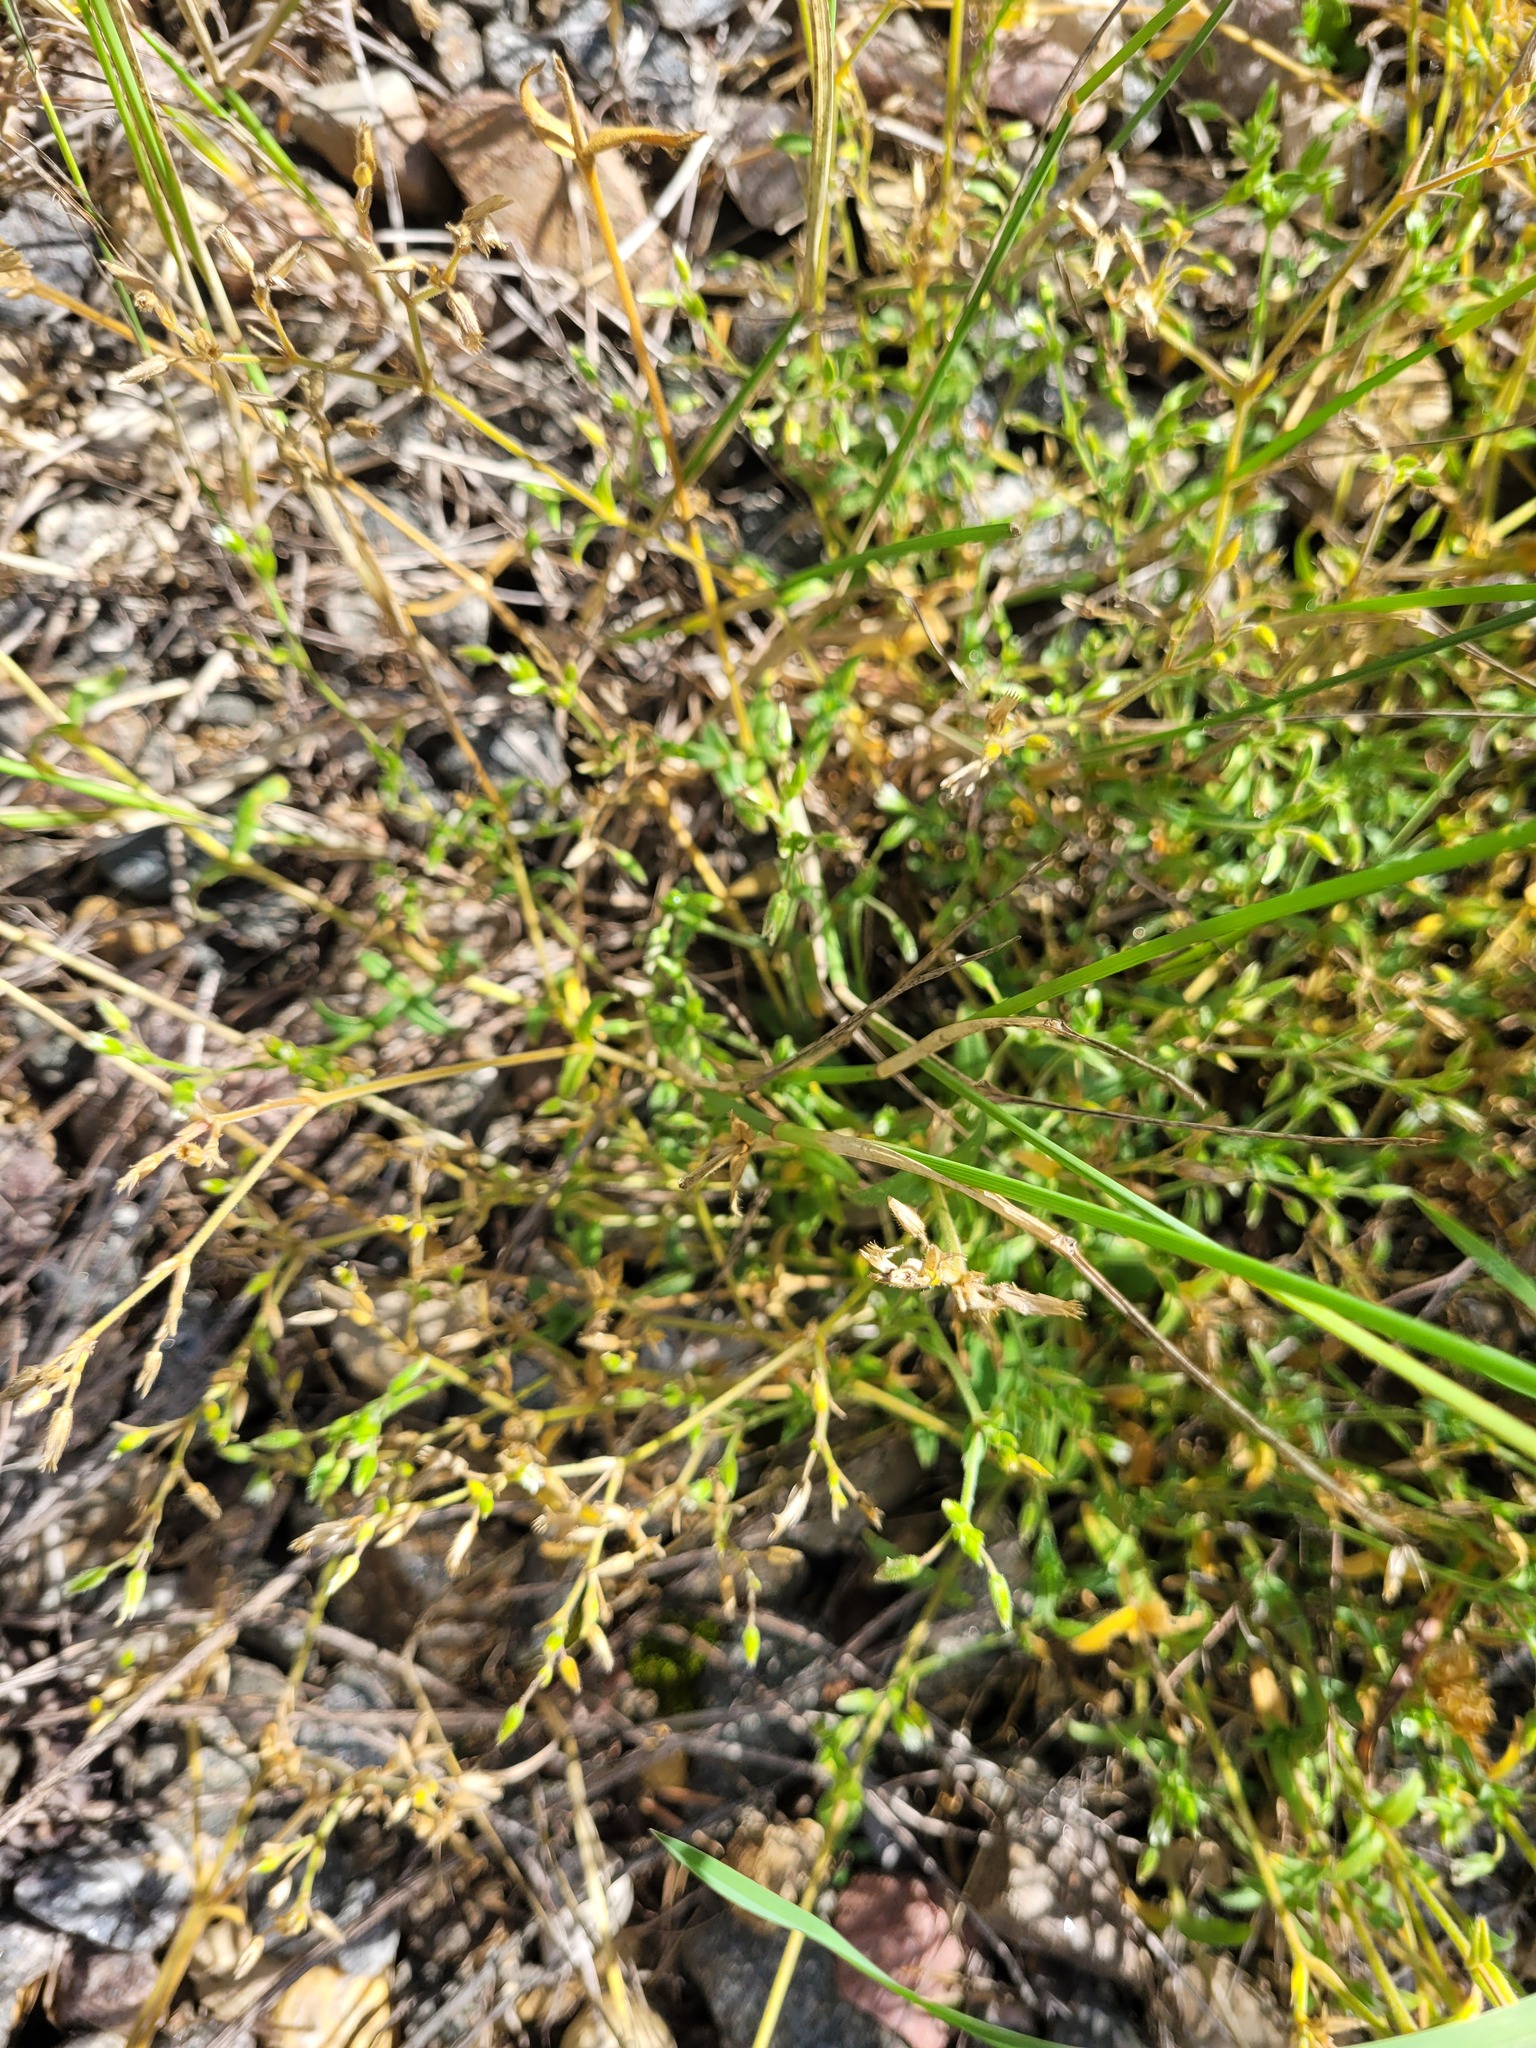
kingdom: Plantae
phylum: Tracheophyta
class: Magnoliopsida
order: Caryophyllales
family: Caryophyllaceae
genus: Cerastium
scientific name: Cerastium holosteoides
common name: Big chickweed
